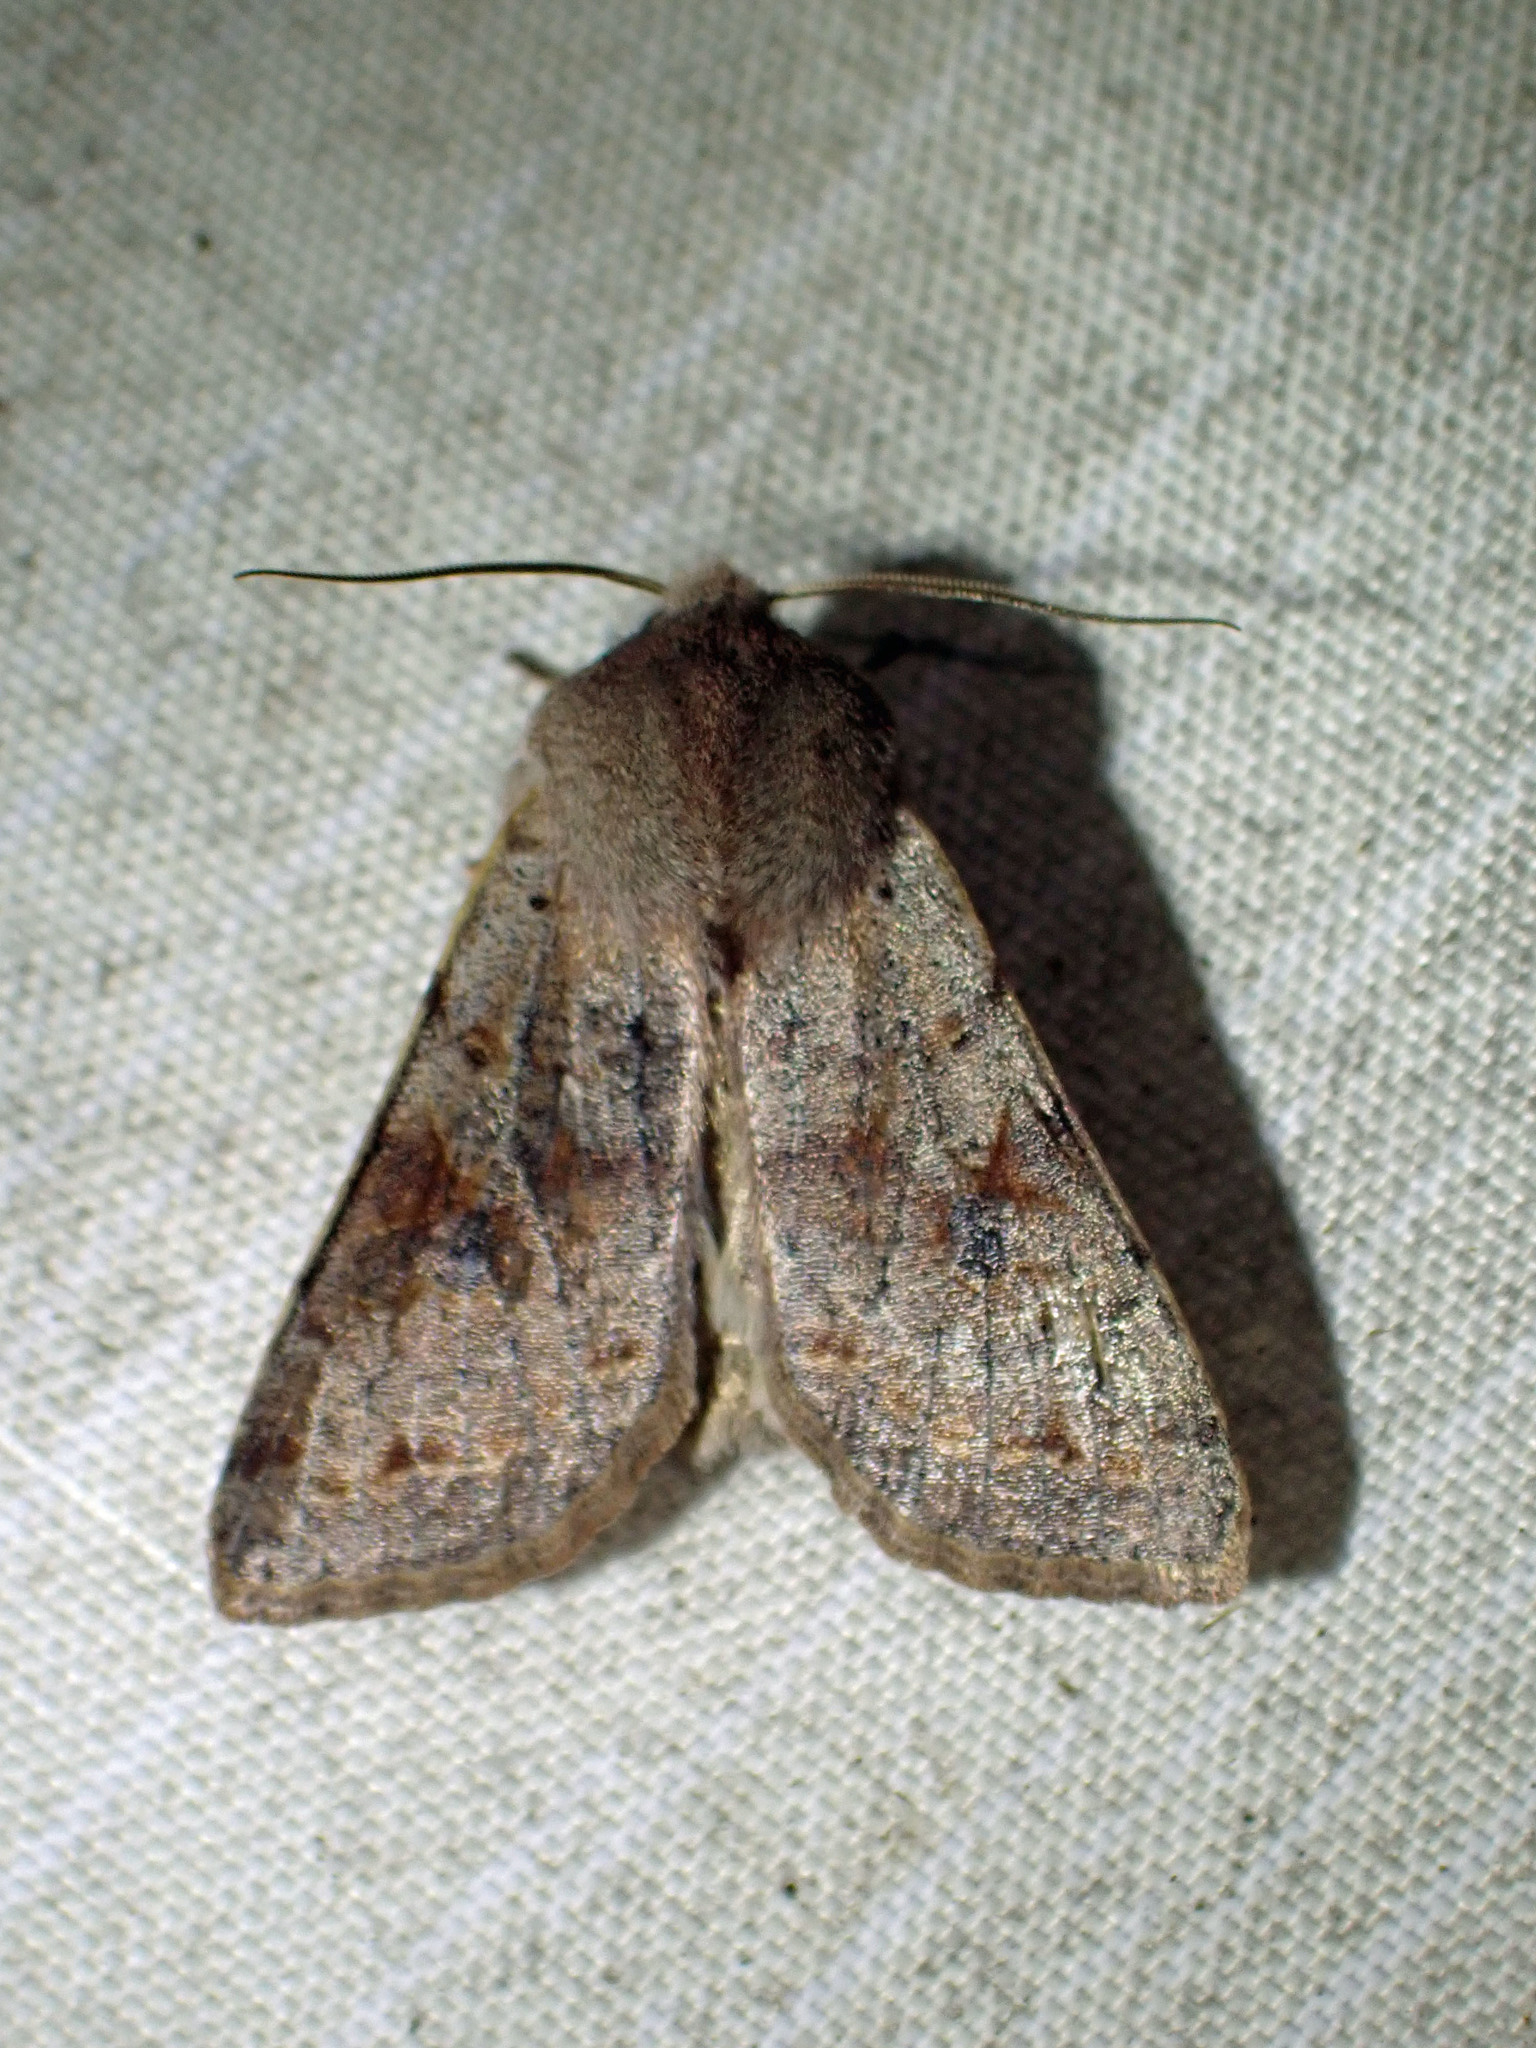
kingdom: Animalia
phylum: Arthropoda
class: Insecta
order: Lepidoptera
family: Noctuidae
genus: Orthosia
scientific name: Orthosia hibisci
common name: Green fruitworm
